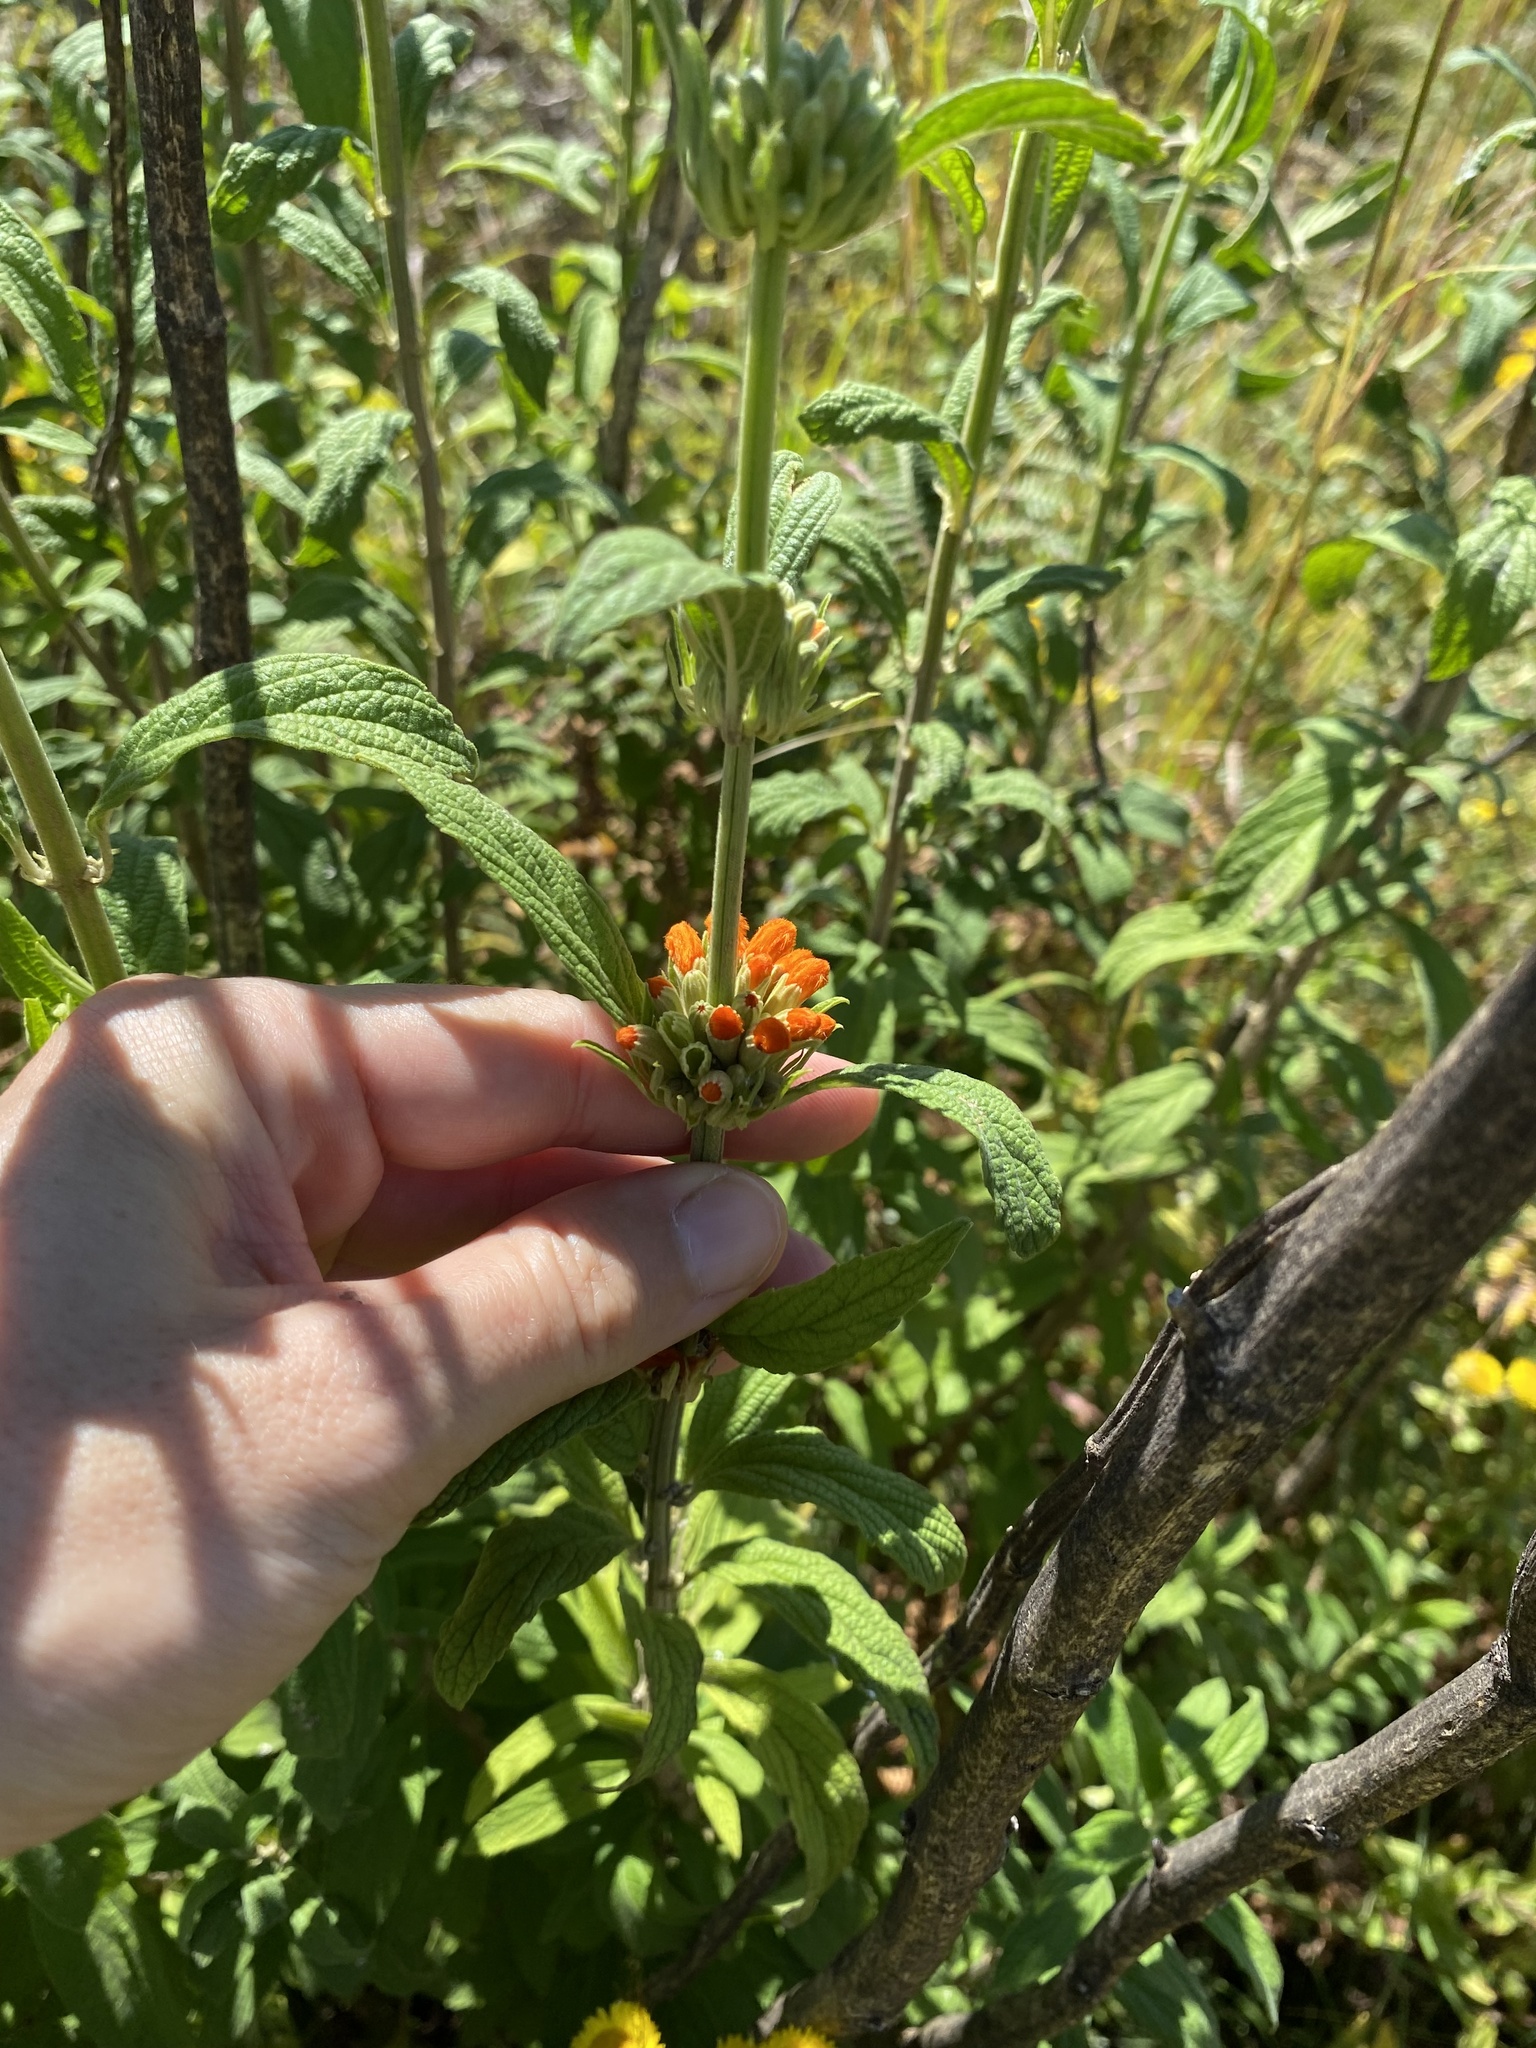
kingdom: Plantae
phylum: Tracheophyta
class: Magnoliopsida
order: Lamiales
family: Lamiaceae
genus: Leonotis
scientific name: Leonotis leonurus
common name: Lion's ear
